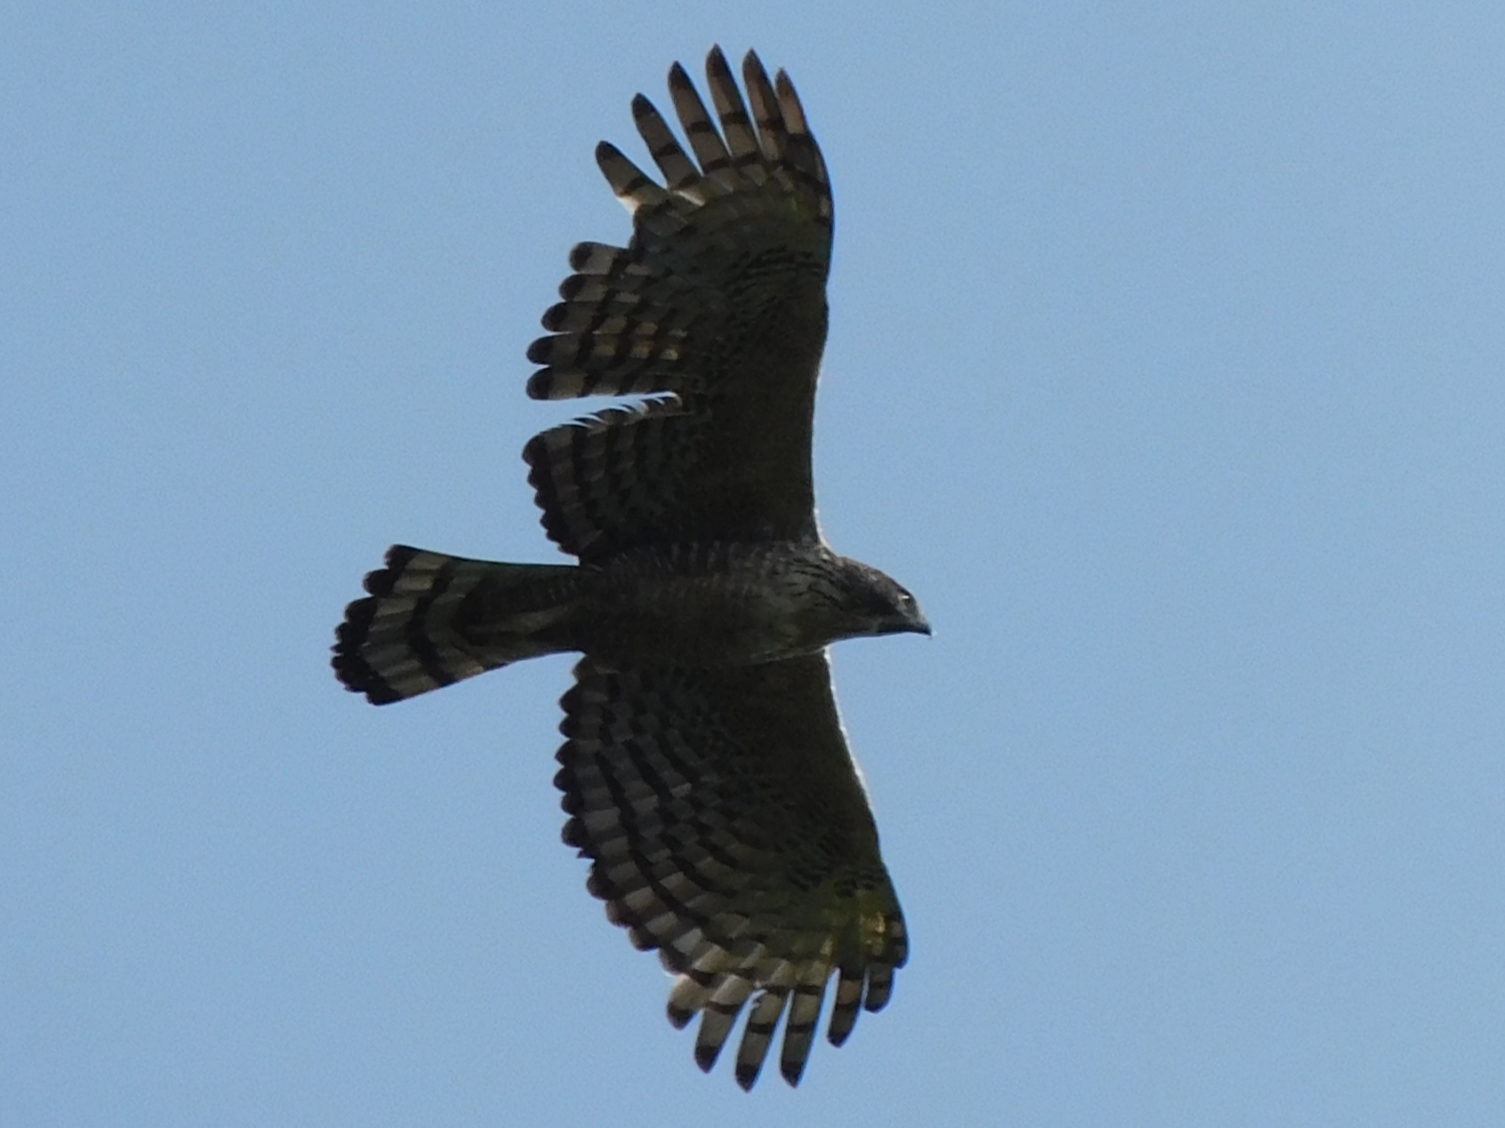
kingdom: Animalia
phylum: Chordata
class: Aves
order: Accipitriformes
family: Accipitridae
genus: Nisaetus
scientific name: Nisaetus nipalensis
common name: Mountain hawk-eagle
